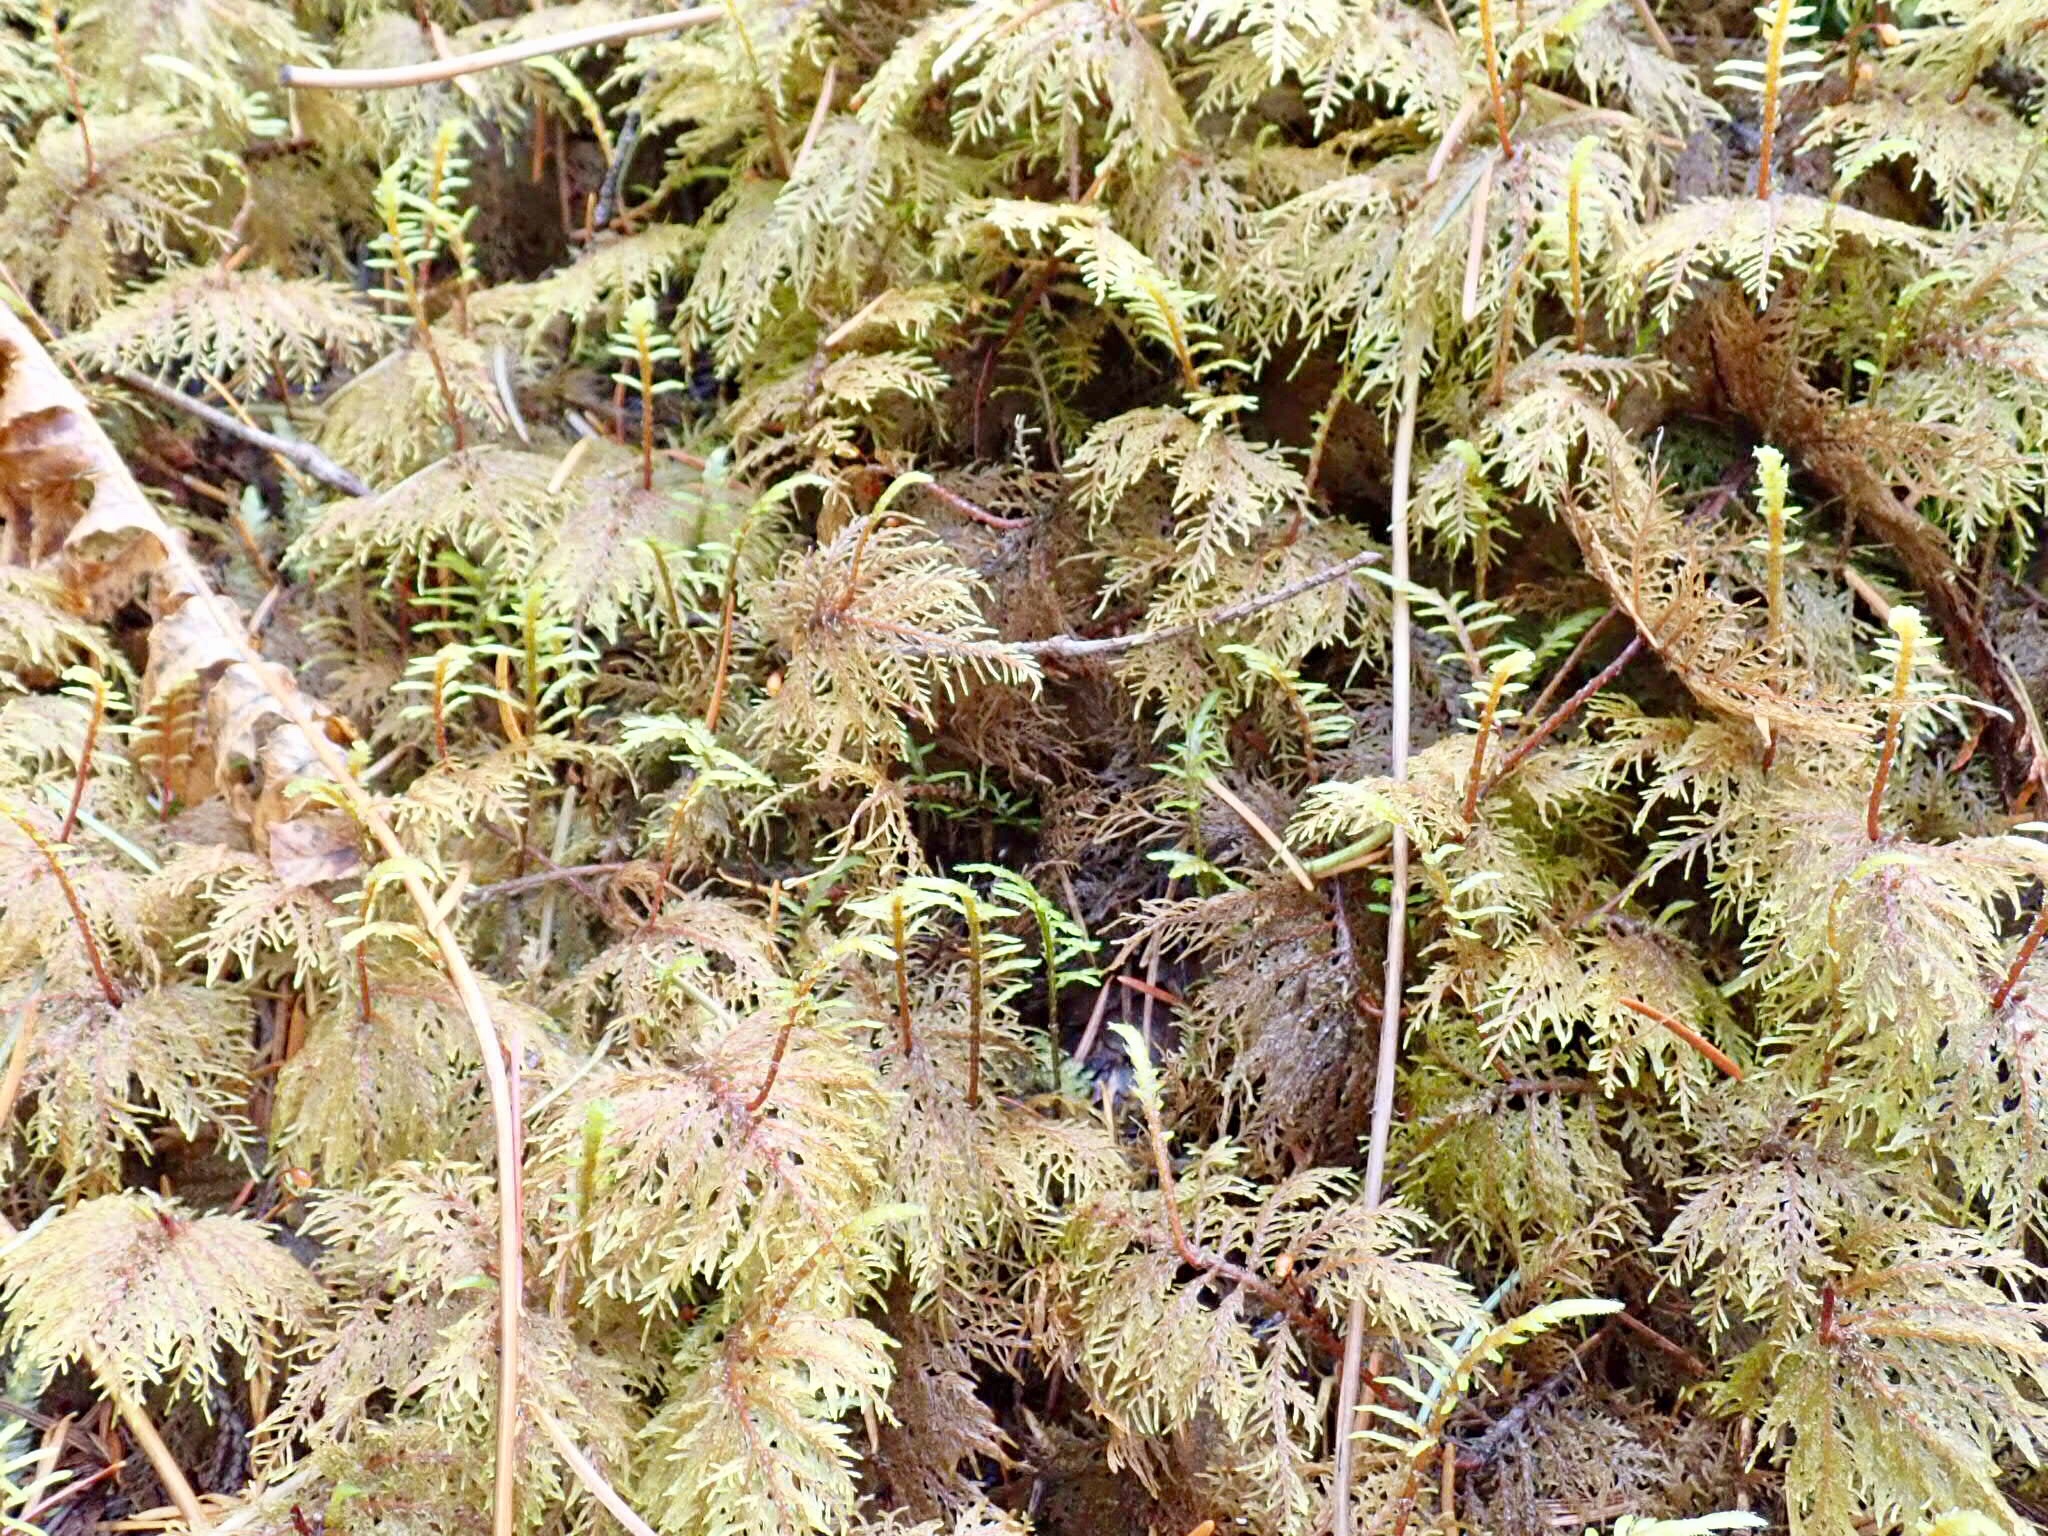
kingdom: Plantae
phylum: Bryophyta
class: Bryopsida
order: Hypnales
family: Hylocomiaceae
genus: Hylocomium
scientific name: Hylocomium splendens
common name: Stairstep moss
